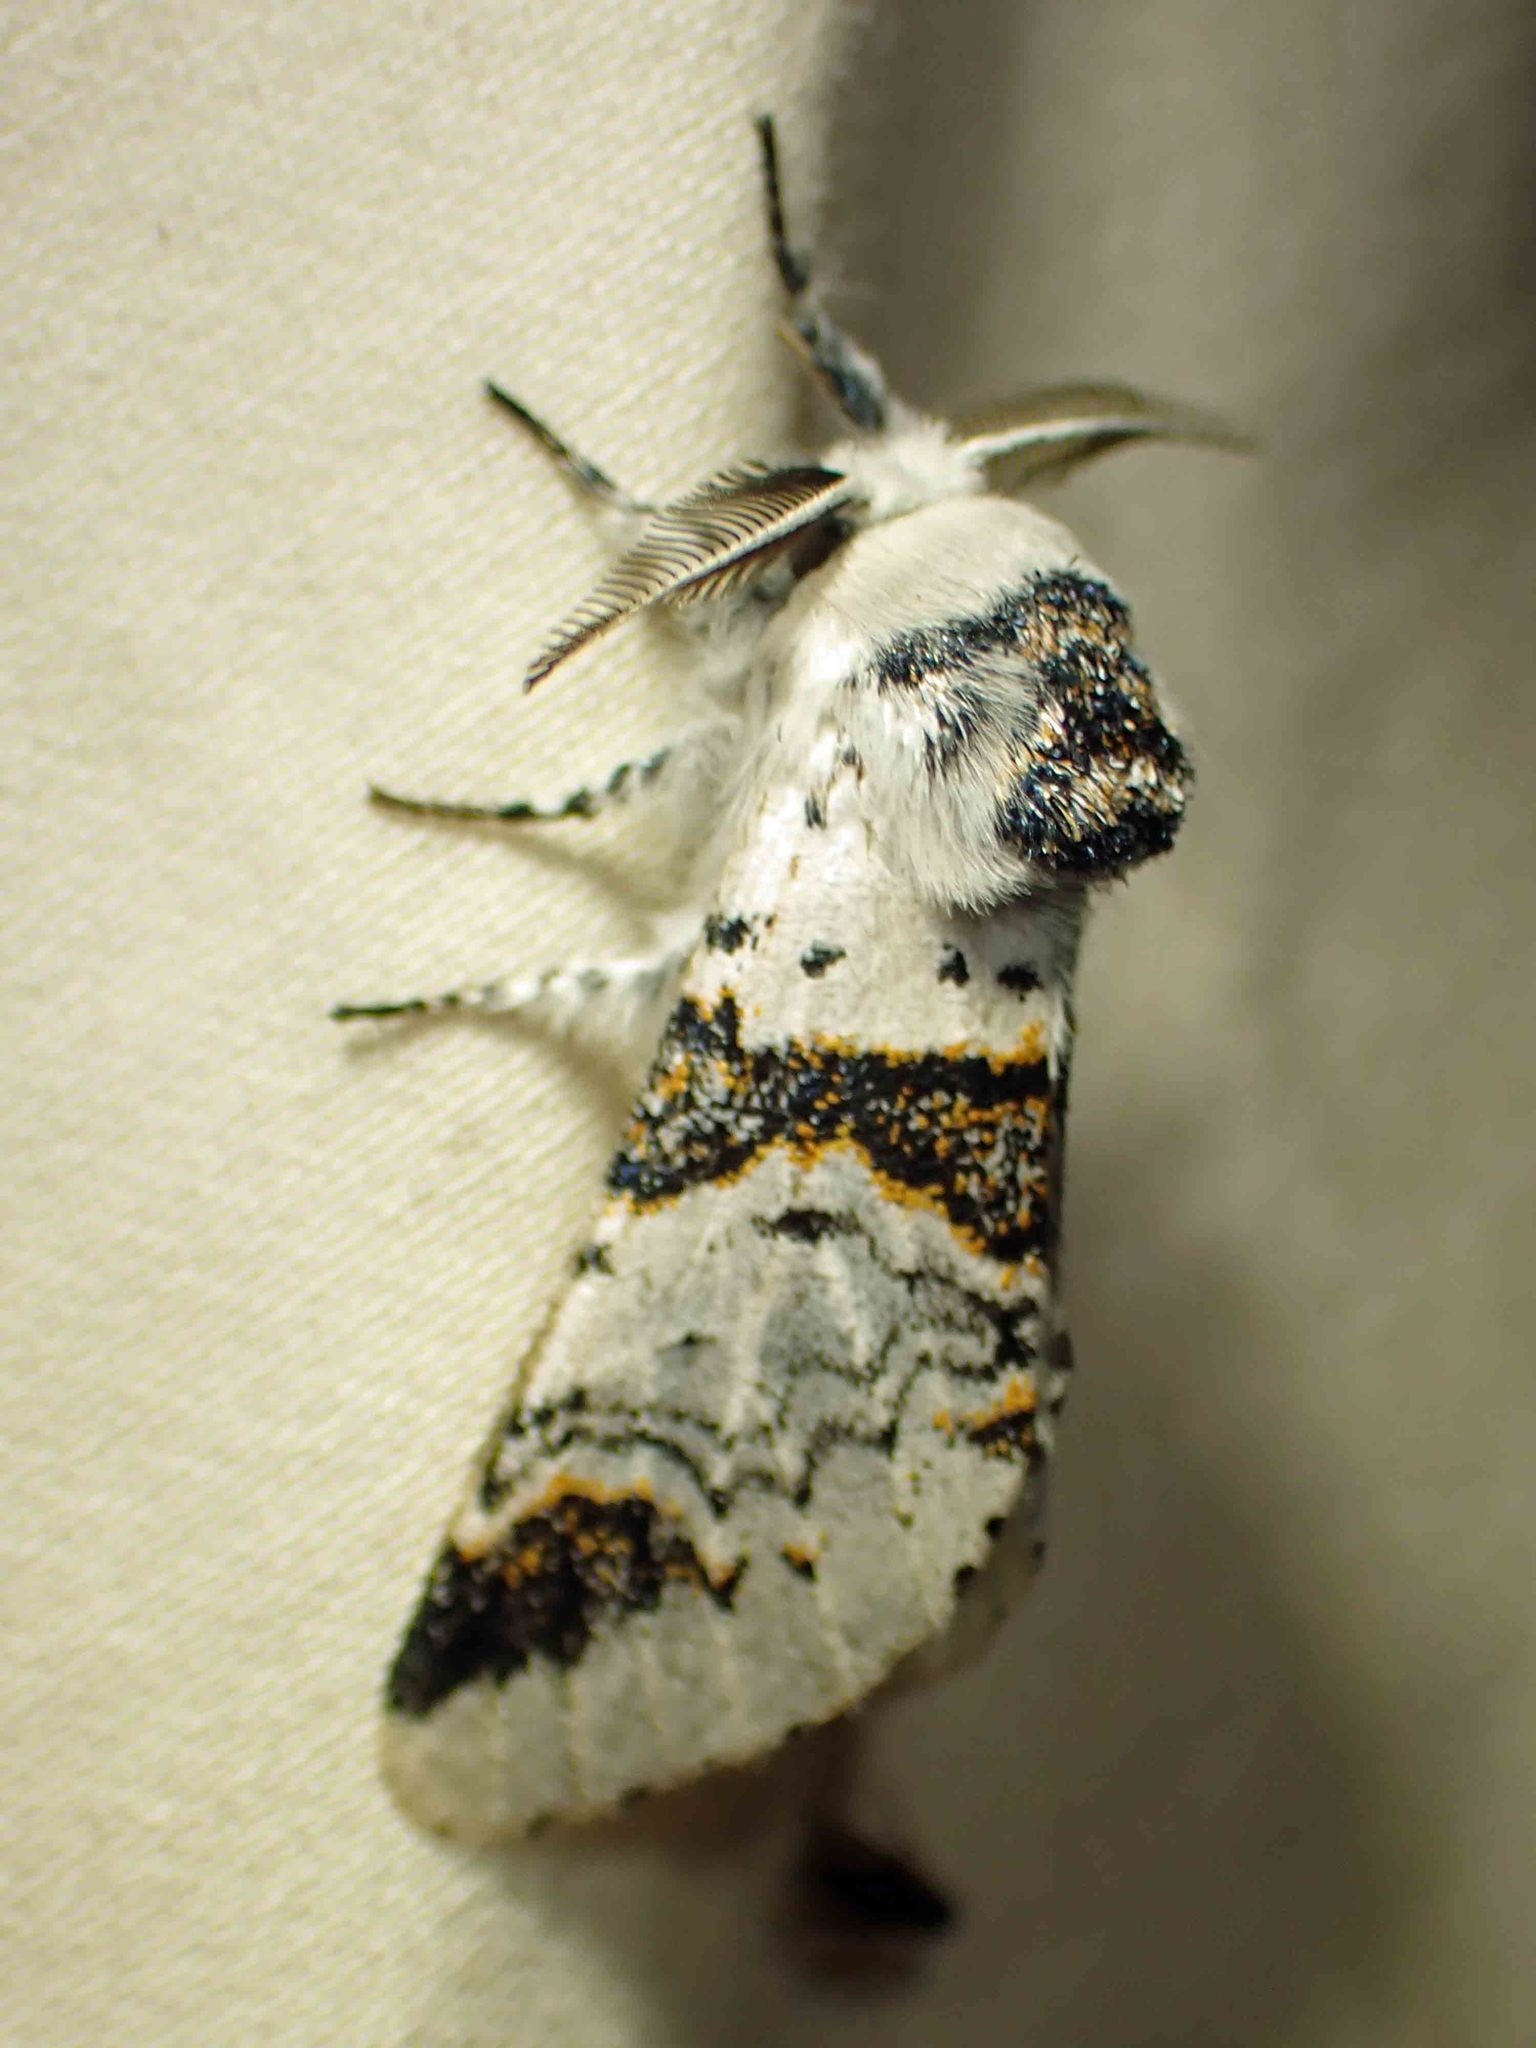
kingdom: Animalia
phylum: Arthropoda
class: Insecta
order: Lepidoptera
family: Notodontidae
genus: Furcula
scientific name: Furcula scolopendrina
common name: Zigzag furcula moth
